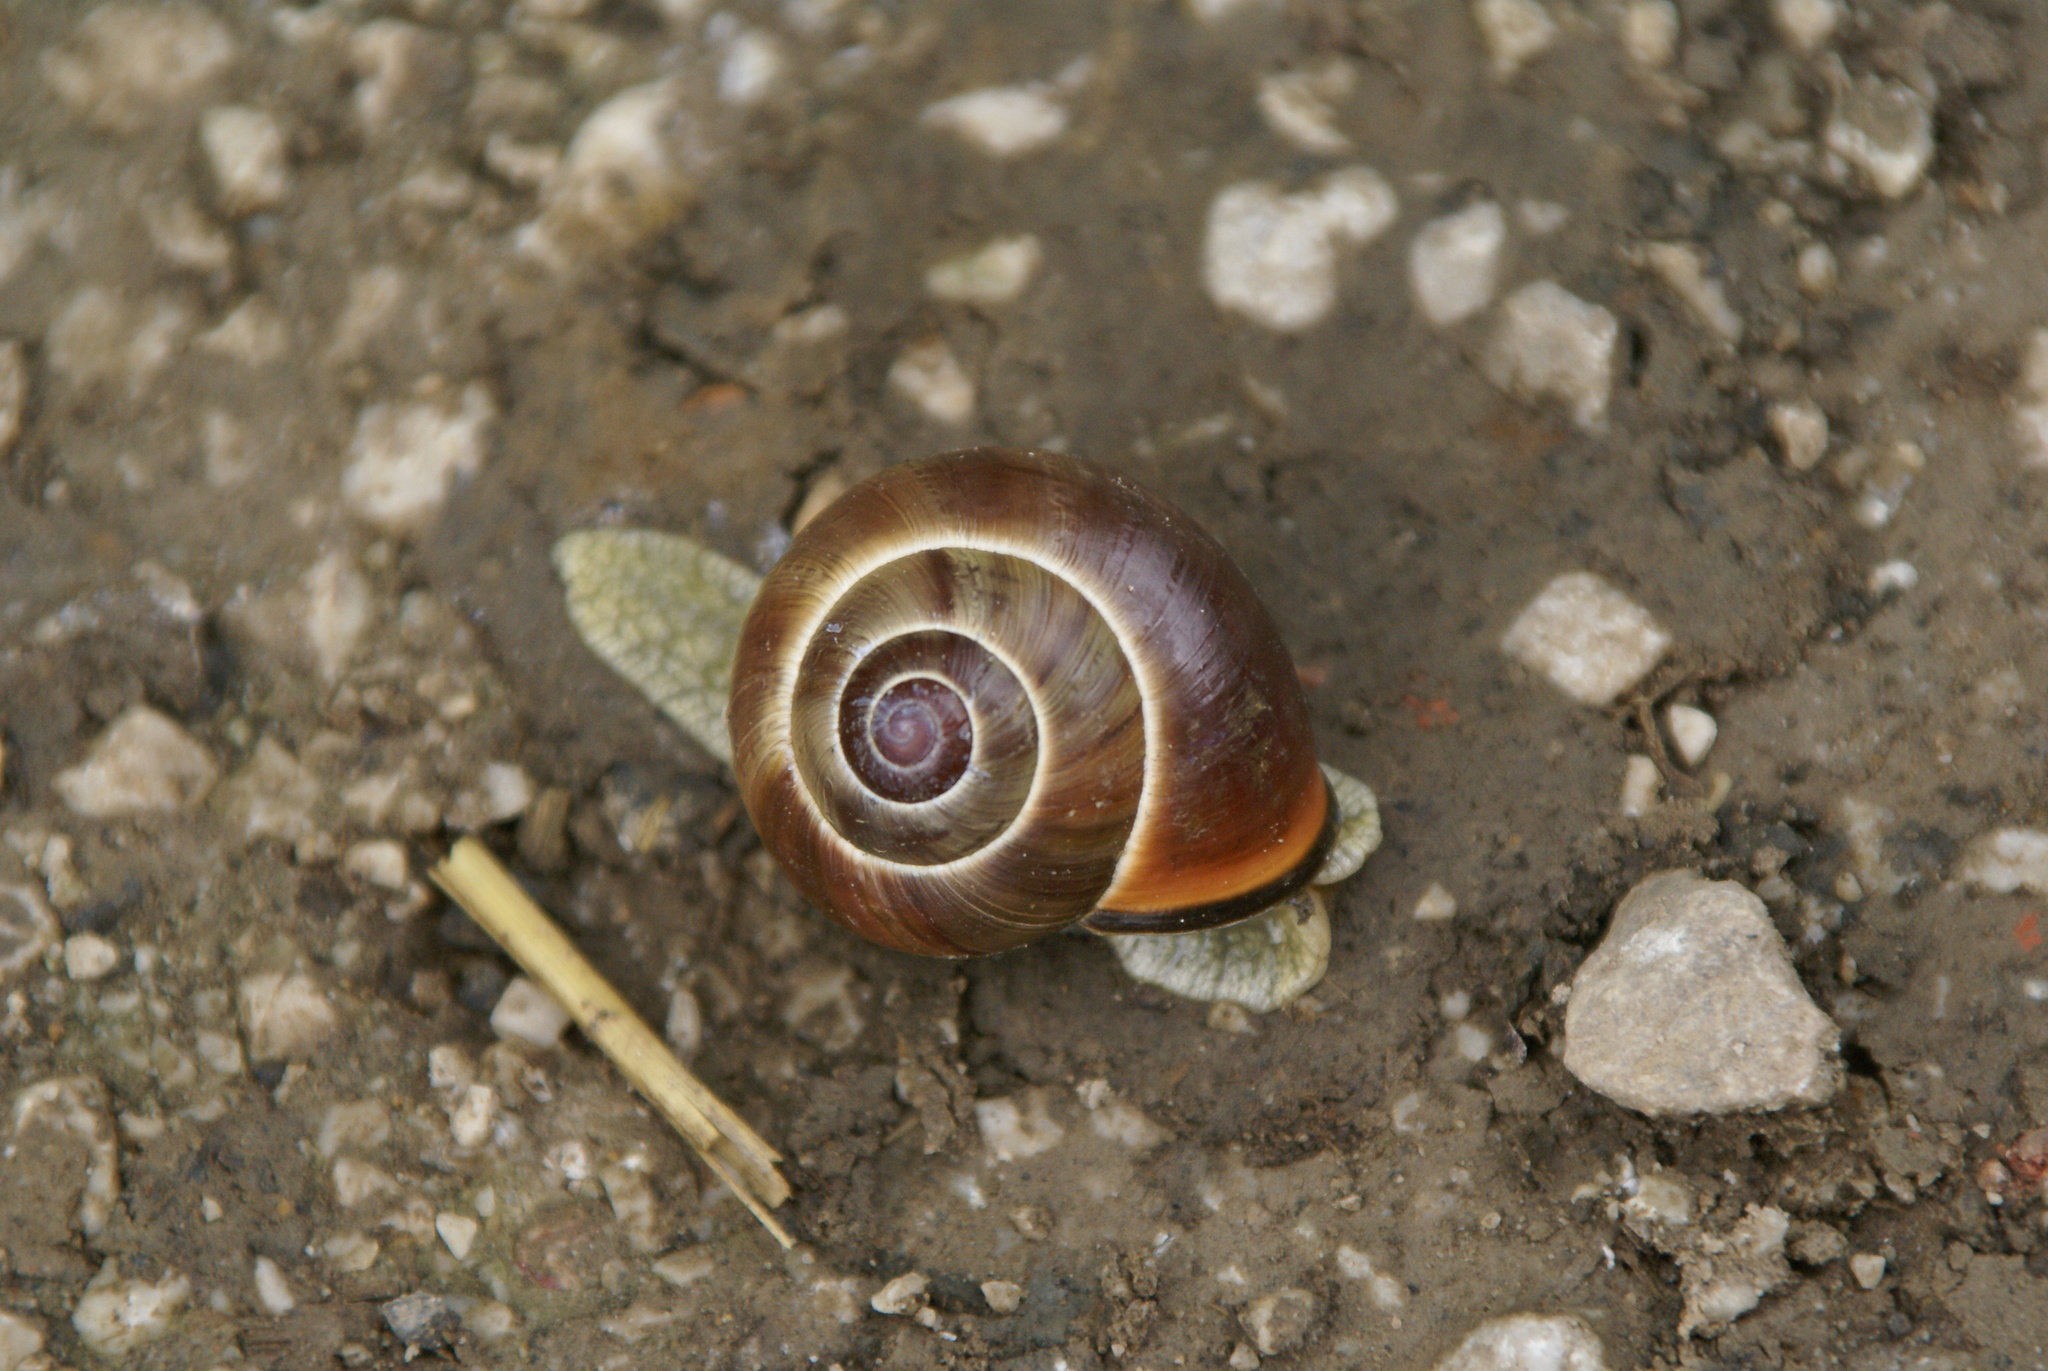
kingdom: Animalia
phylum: Mollusca
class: Gastropoda
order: Stylommatophora
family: Helicidae
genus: Cepaea
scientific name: Cepaea nemoralis
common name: Grovesnail
